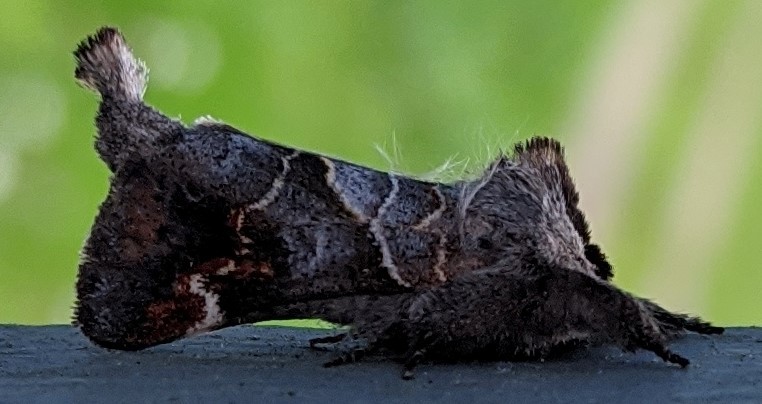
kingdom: Animalia
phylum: Arthropoda
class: Insecta
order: Lepidoptera
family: Notodontidae
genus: Clostera
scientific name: Clostera apicalis
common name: Apical prominent
